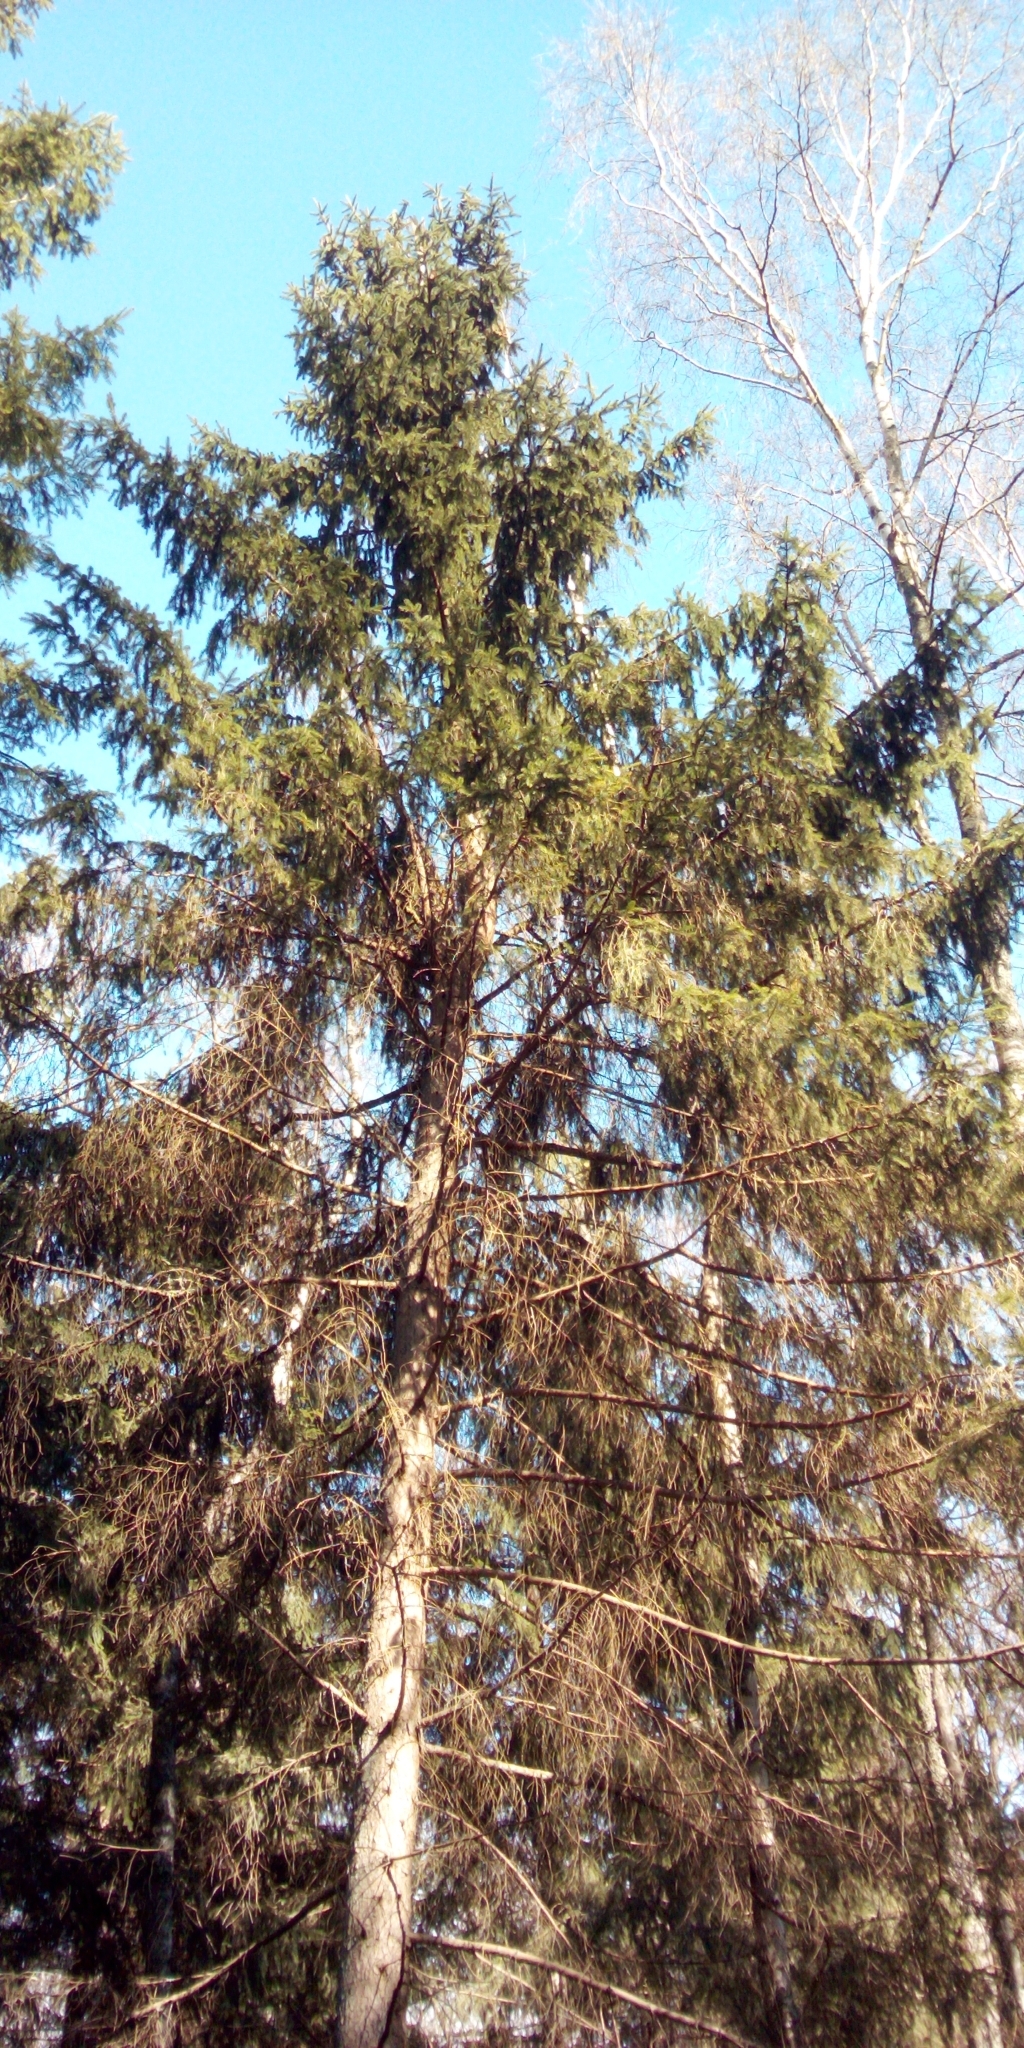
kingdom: Plantae
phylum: Tracheophyta
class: Pinopsida
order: Pinales
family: Pinaceae
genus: Picea
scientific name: Picea abies
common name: Norway spruce
